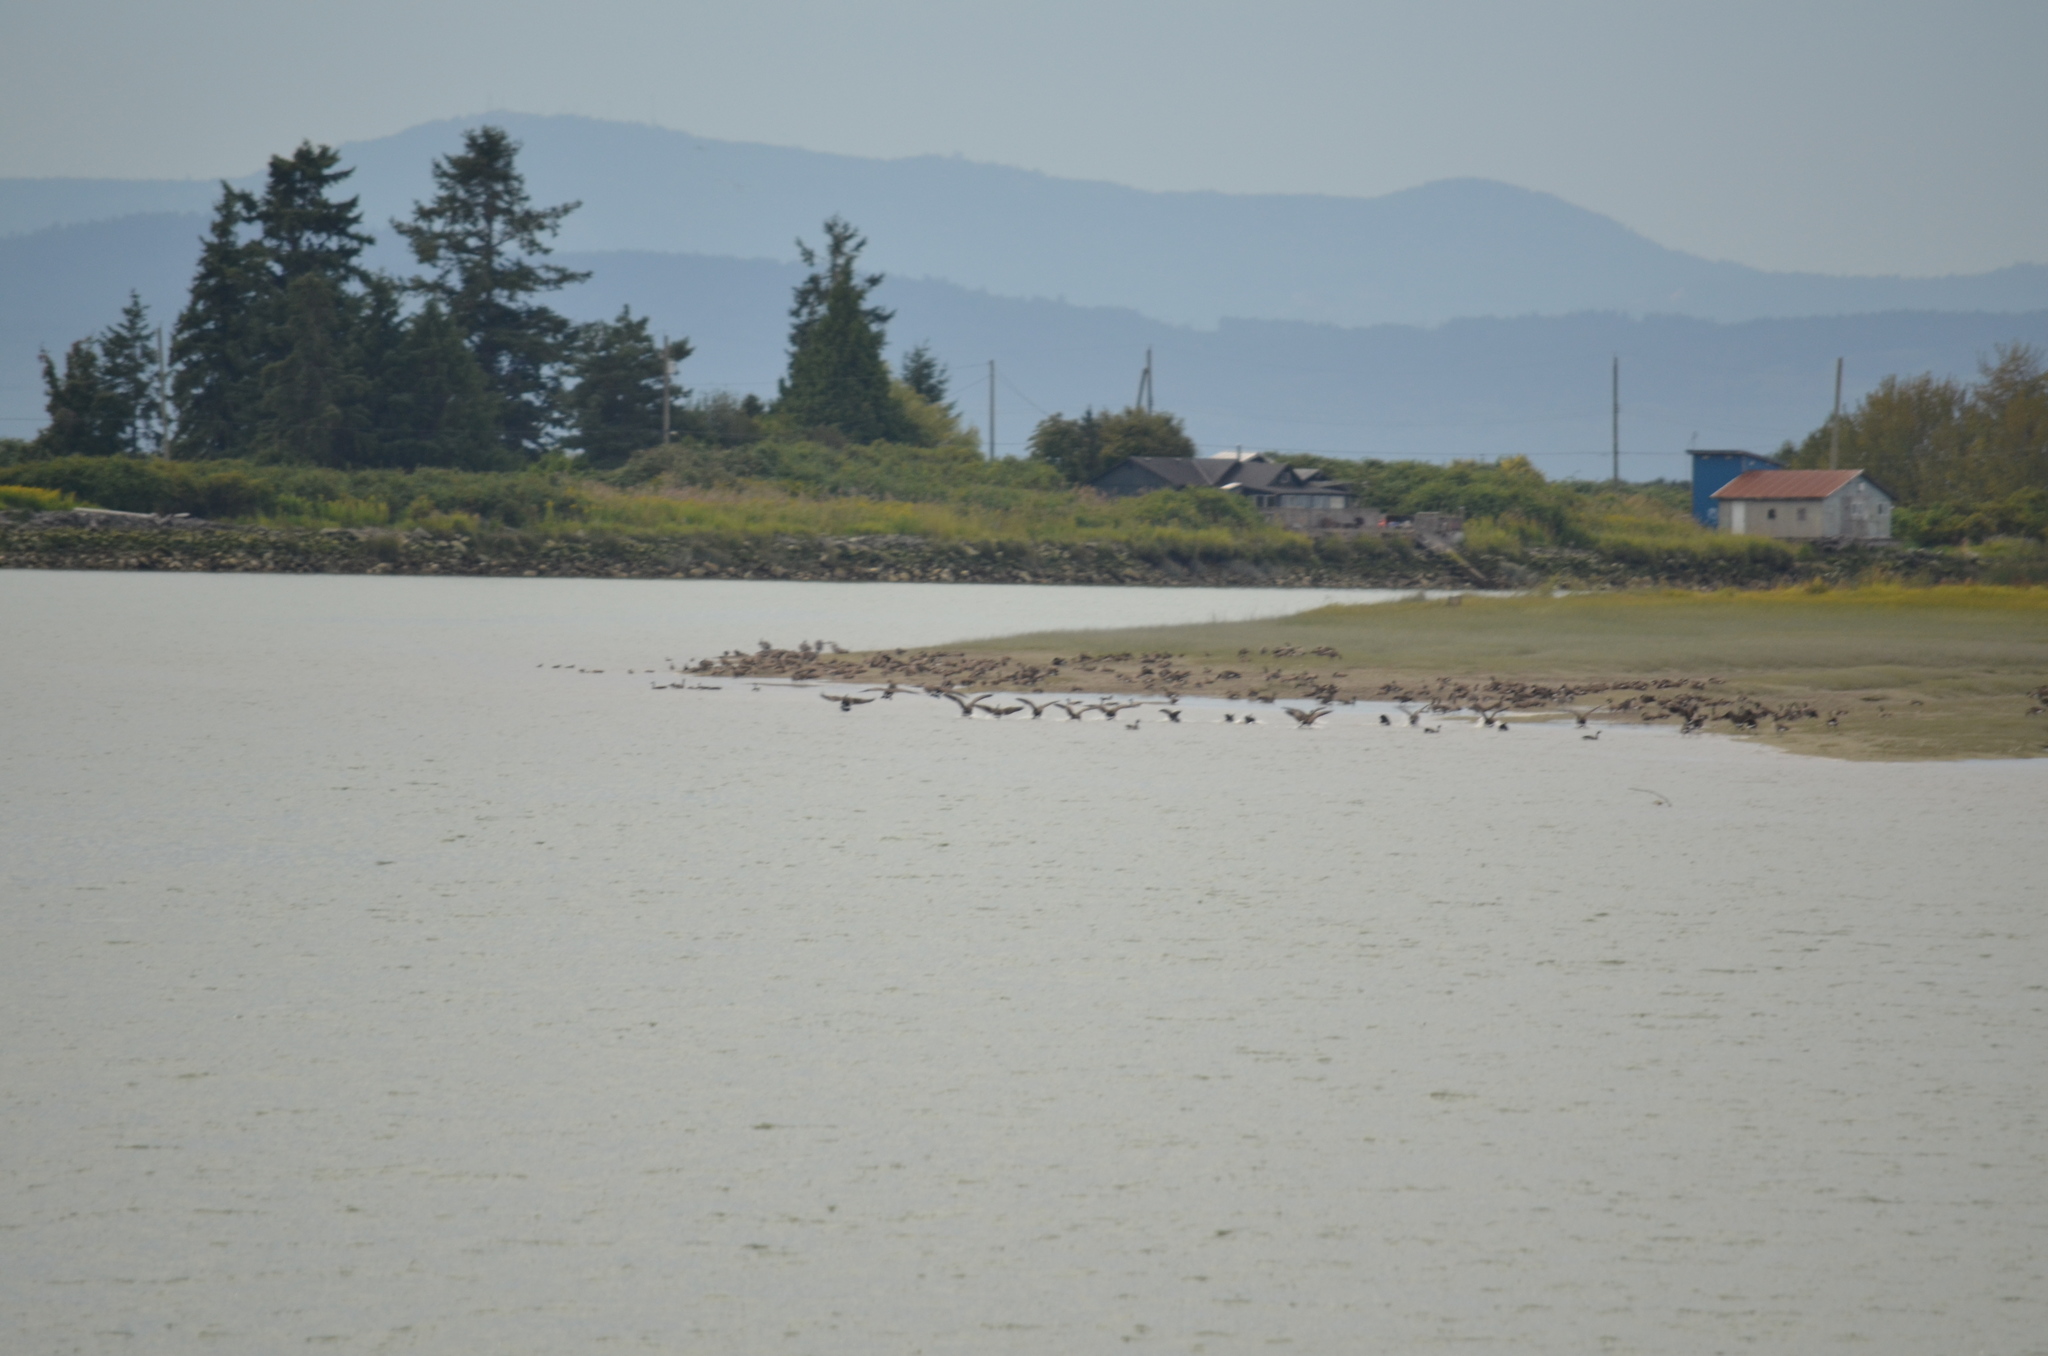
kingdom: Animalia
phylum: Chordata
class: Aves
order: Anseriformes
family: Anatidae
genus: Branta
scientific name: Branta canadensis
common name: Canada goose
